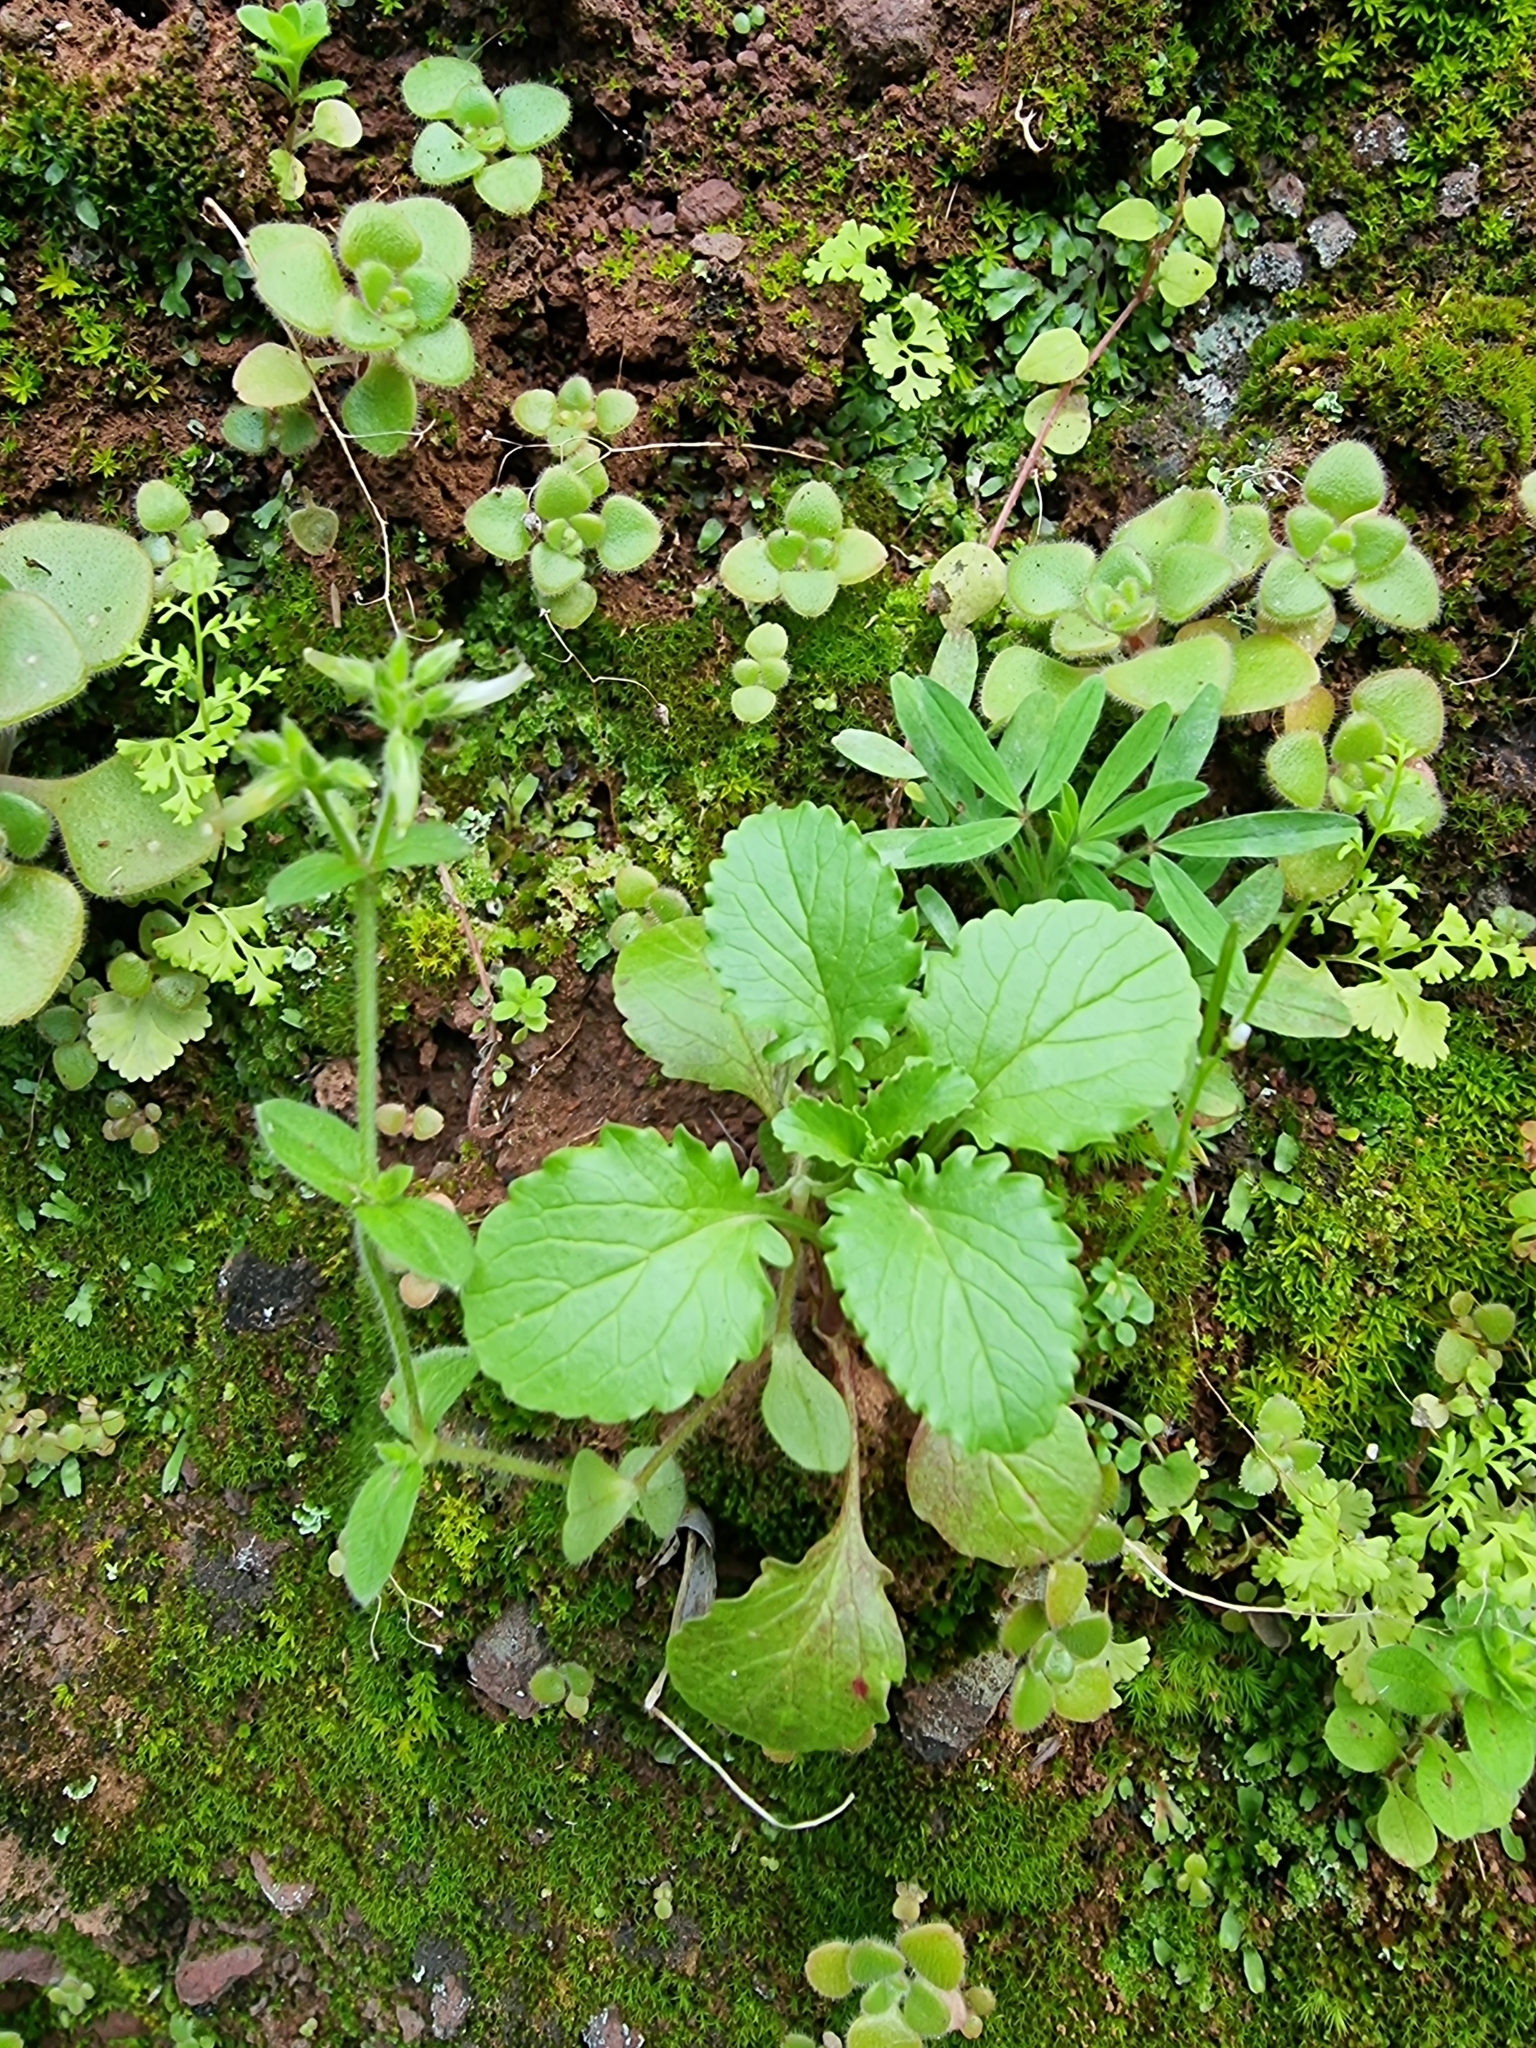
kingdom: Plantae
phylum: Tracheophyta
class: Magnoliopsida
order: Dipsacales
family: Caprifoliaceae
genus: Centranthus
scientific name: Centranthus calcitrapae
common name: Annual valerian
